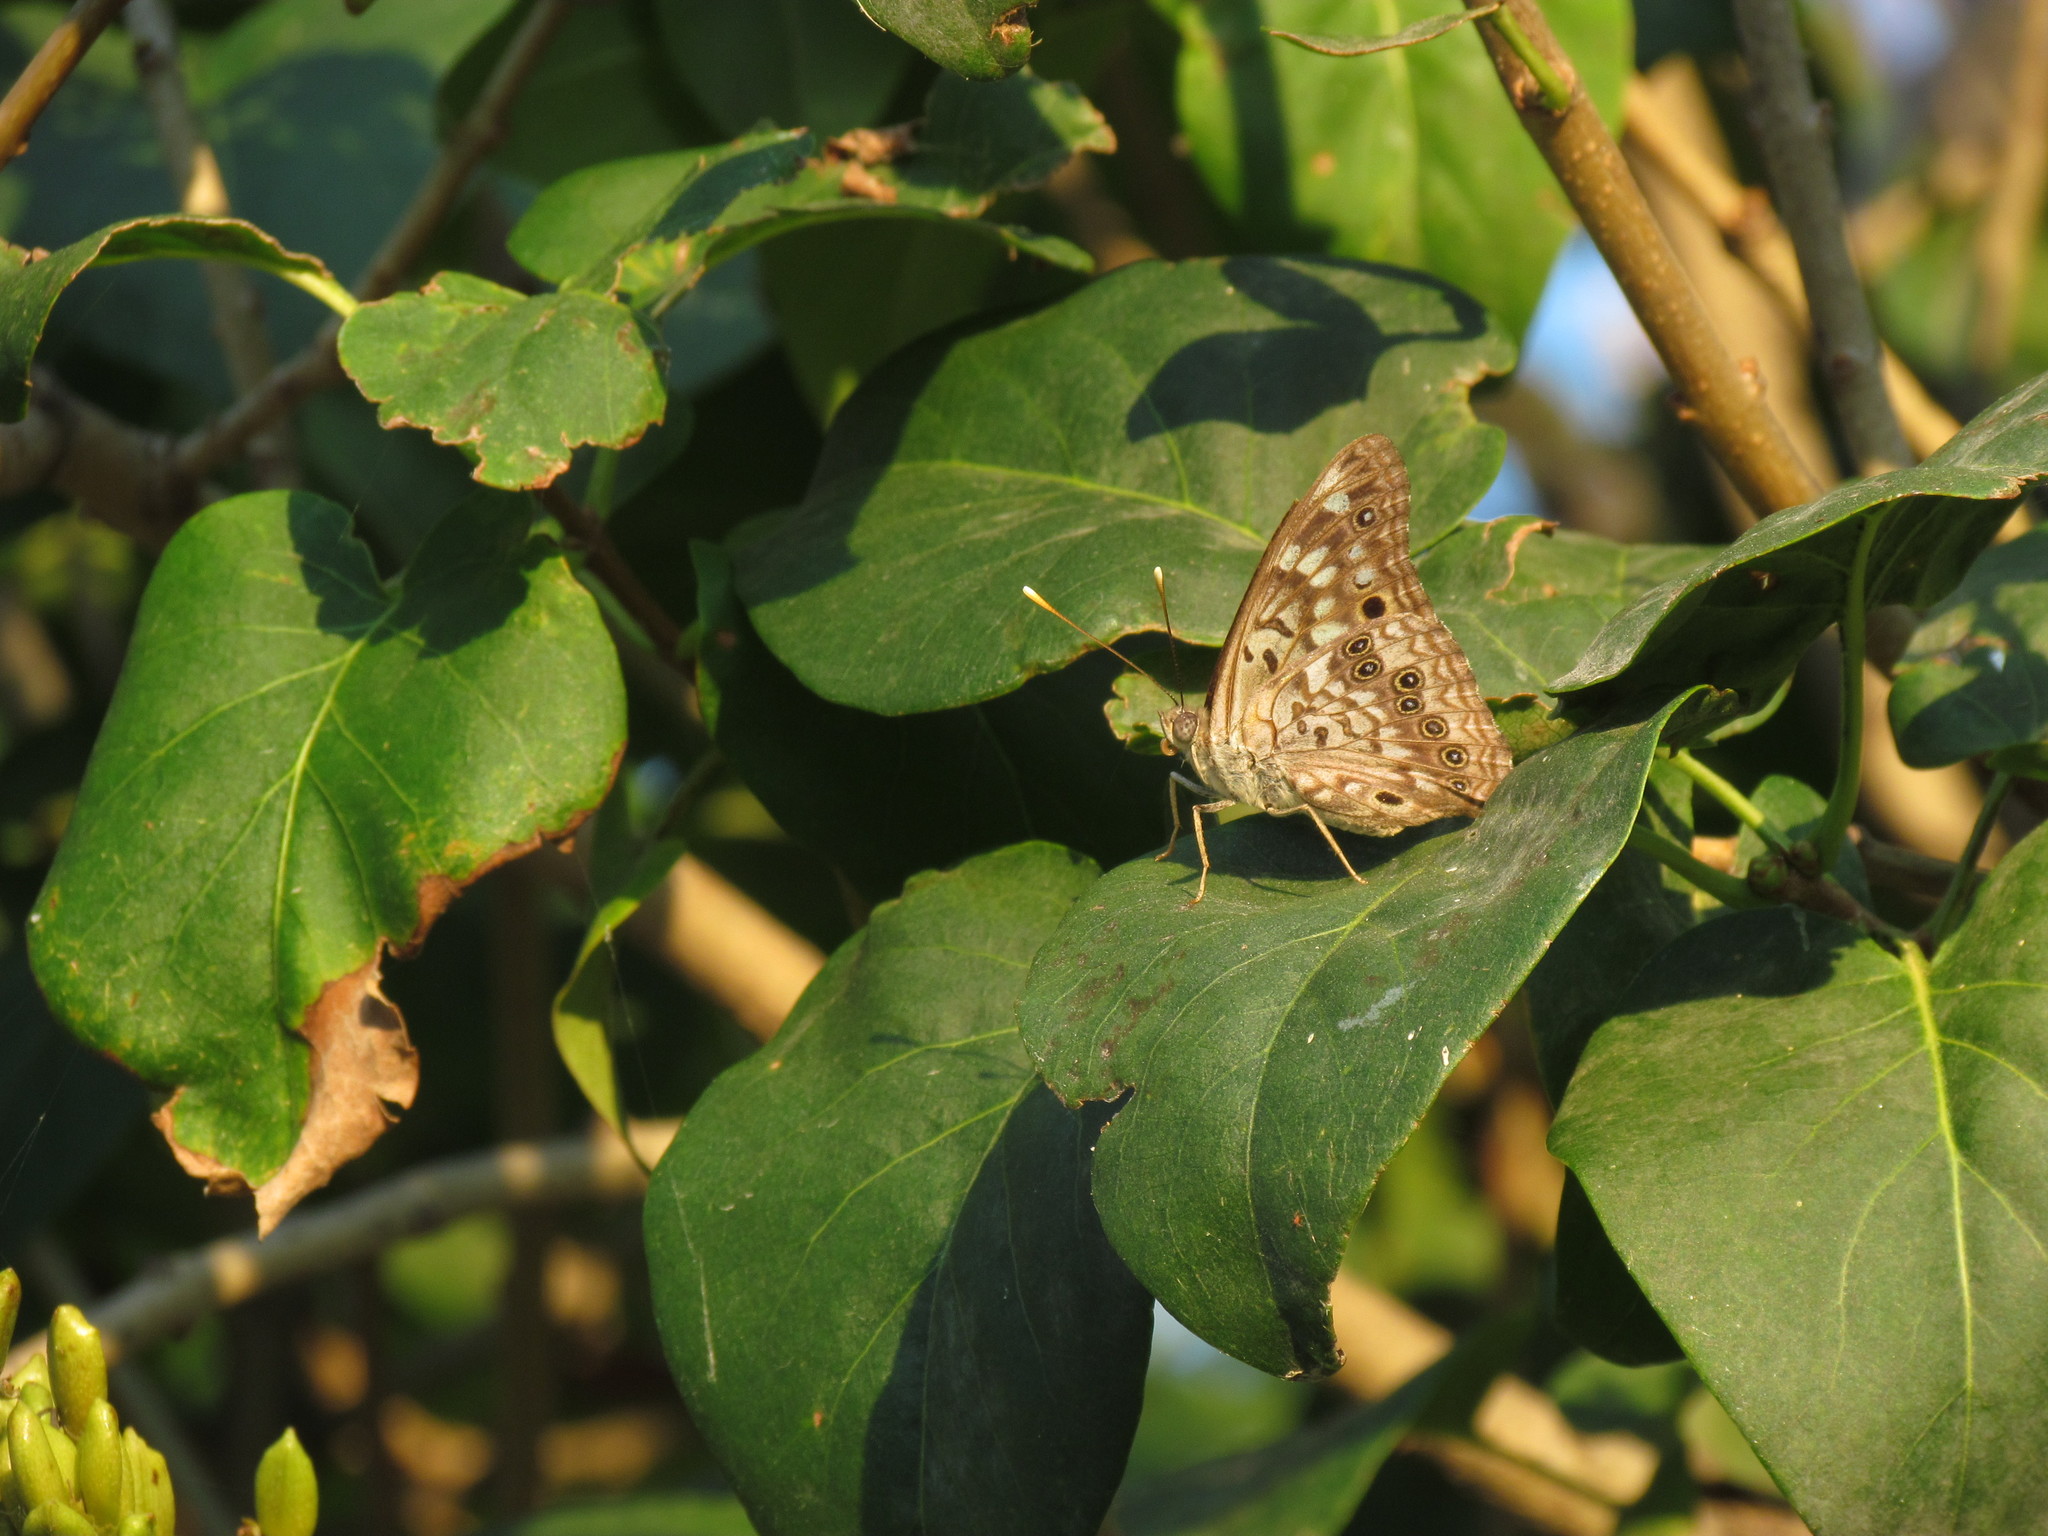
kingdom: Animalia
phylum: Arthropoda
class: Insecta
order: Lepidoptera
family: Nymphalidae
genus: Asterocampa
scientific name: Asterocampa celtis
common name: Hackberry emperor
